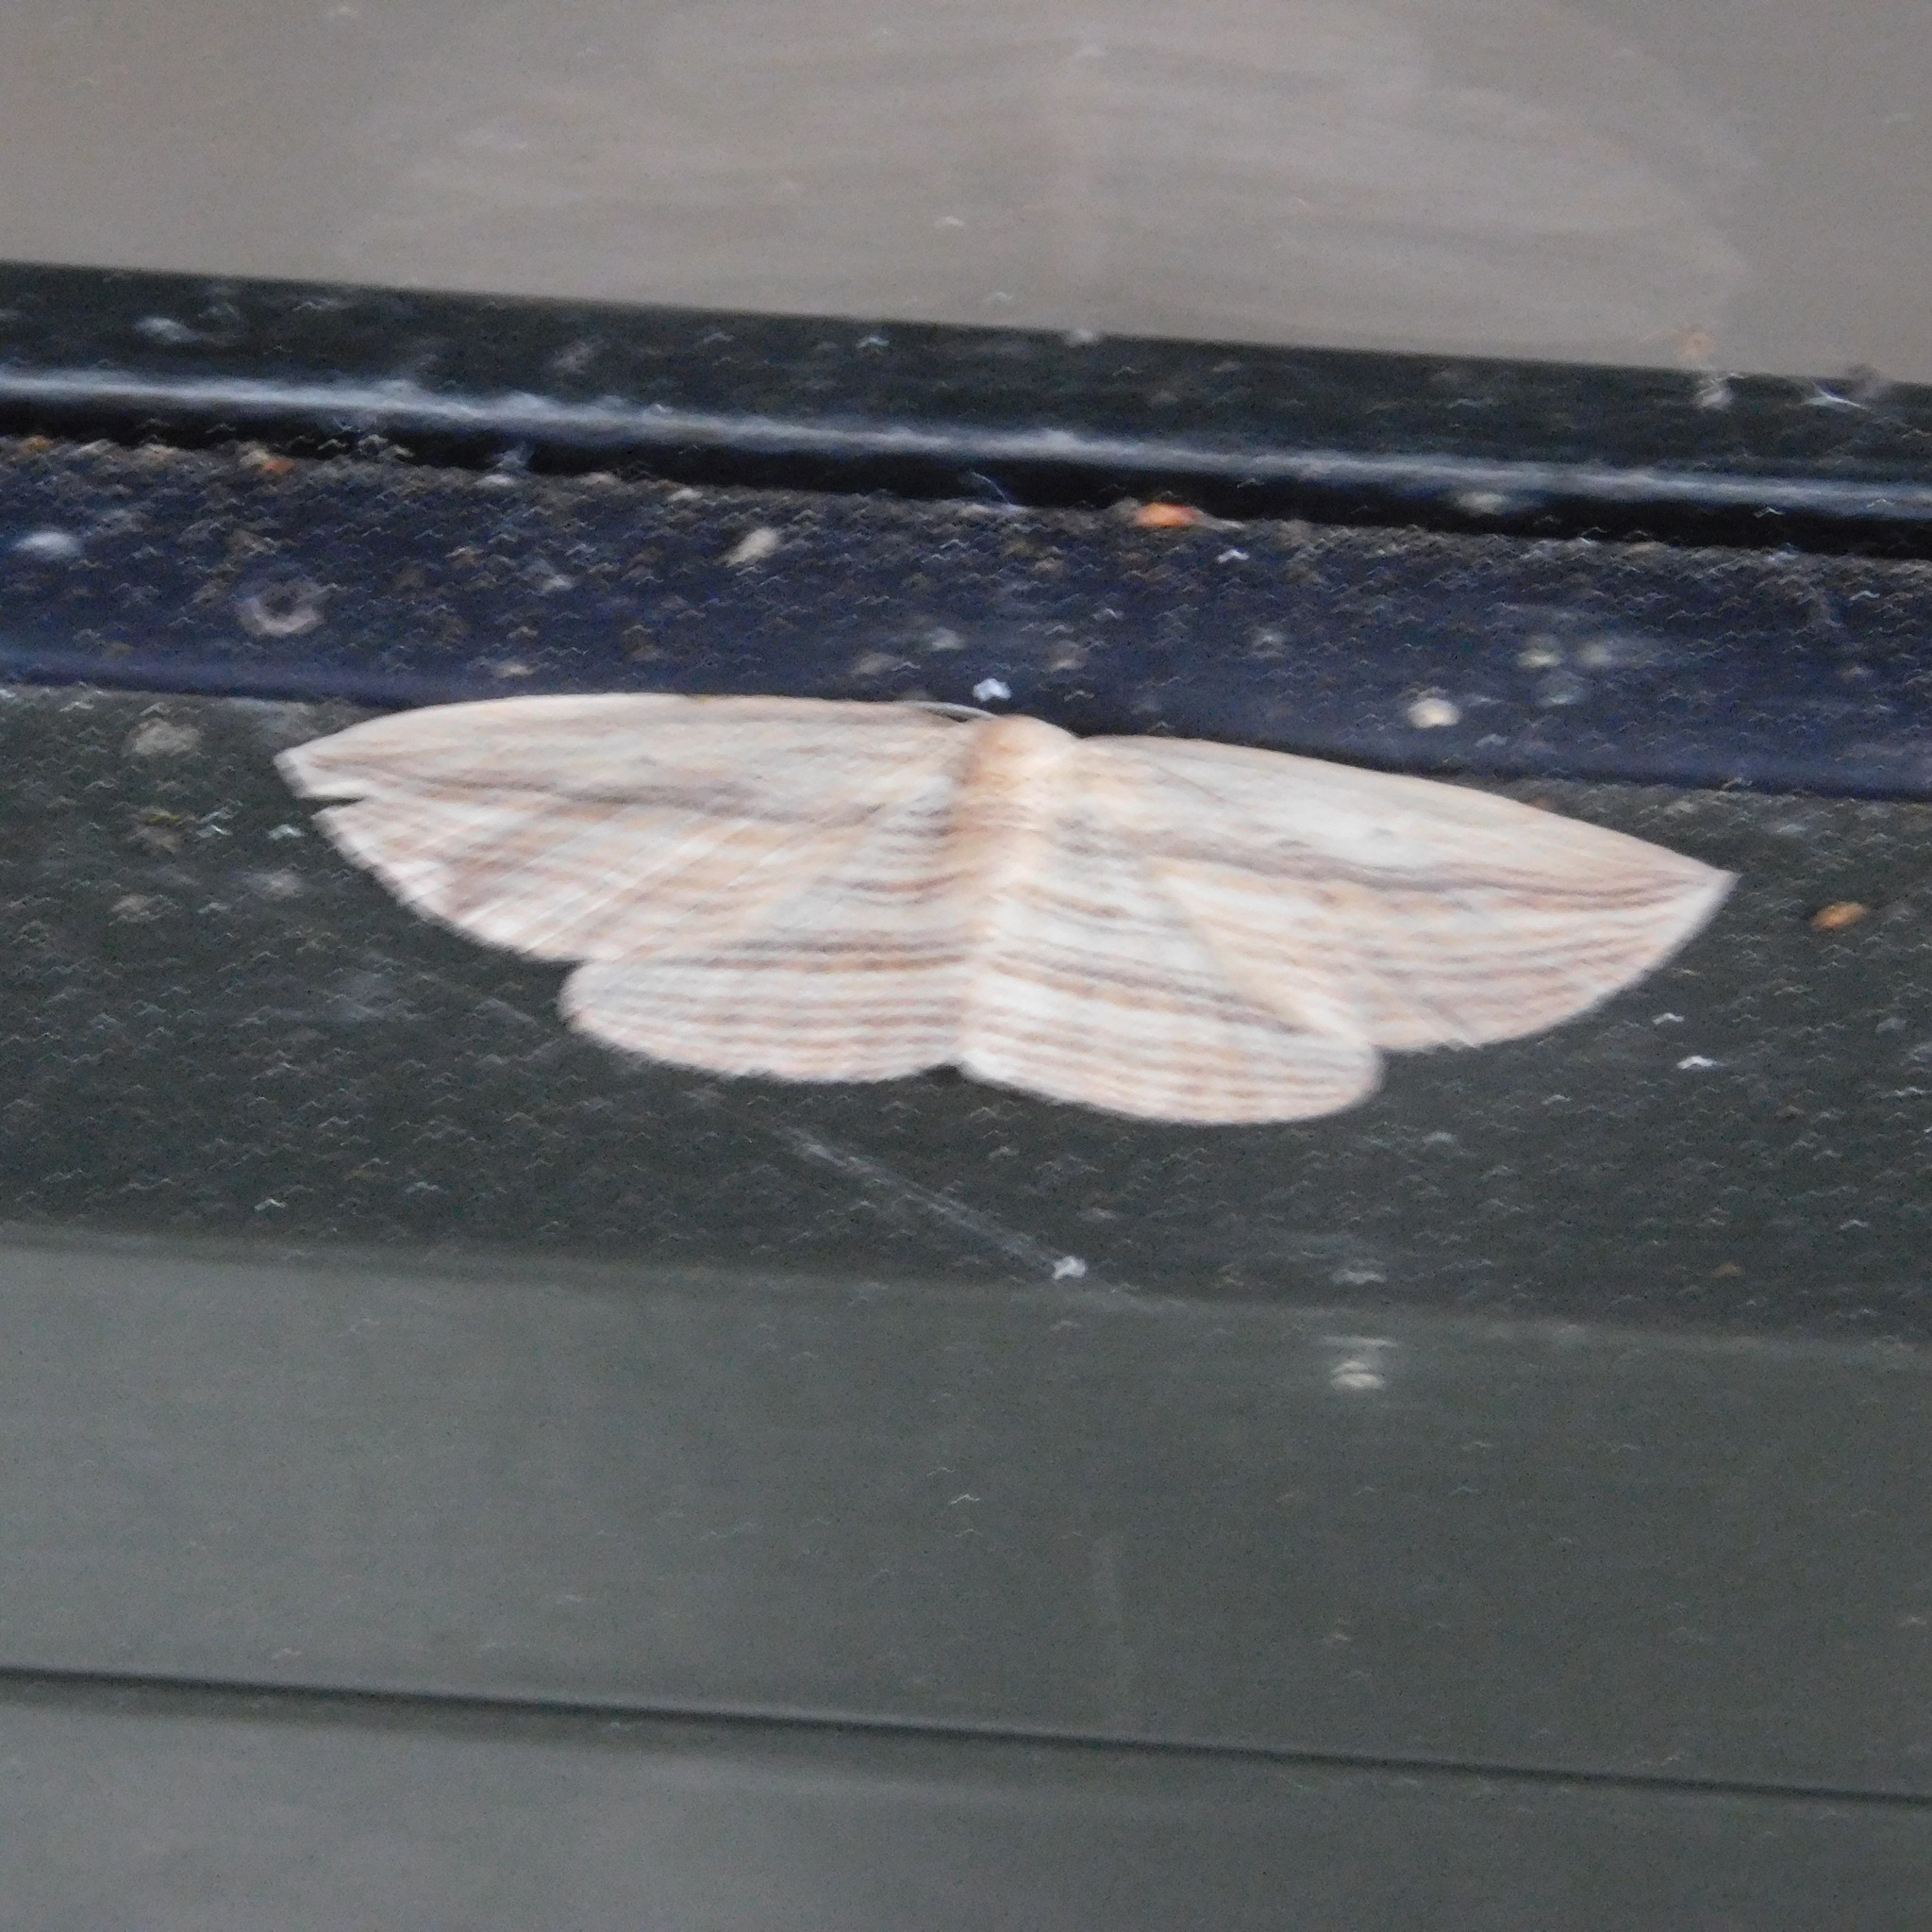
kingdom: Animalia
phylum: Arthropoda
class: Insecta
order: Lepidoptera
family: Geometridae
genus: Epiphryne
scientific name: Epiphryne verriculata
